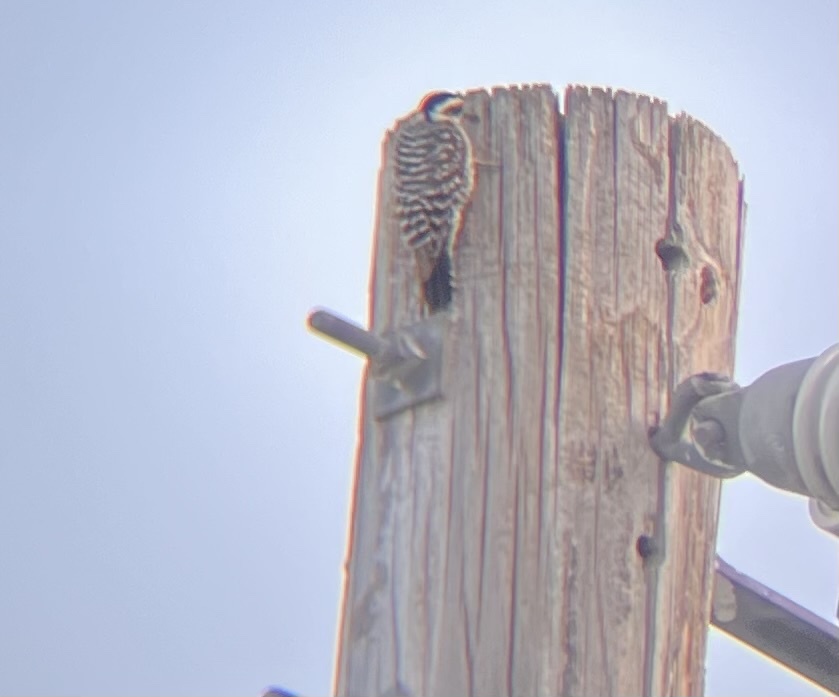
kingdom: Animalia
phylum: Chordata
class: Aves
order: Piciformes
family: Picidae
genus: Dryobates
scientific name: Dryobates scalaris
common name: Ladder-backed woodpecker
